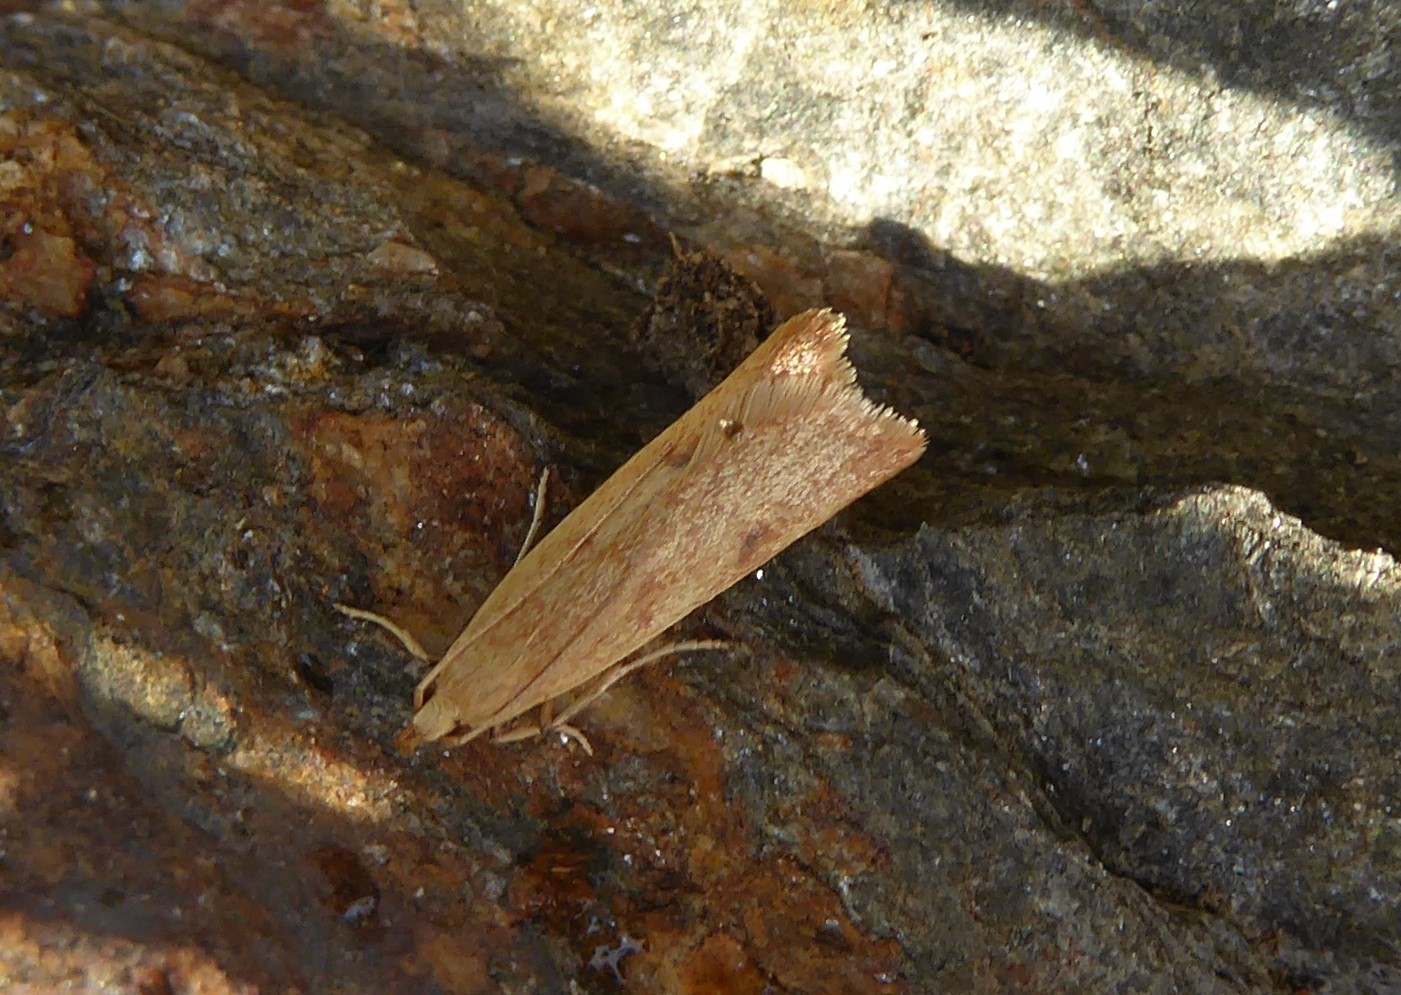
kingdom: Animalia
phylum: Arthropoda
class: Insecta
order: Lepidoptera
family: Oecophoridae
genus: Gymnobathra
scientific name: Gymnobathra sarcoxantha
